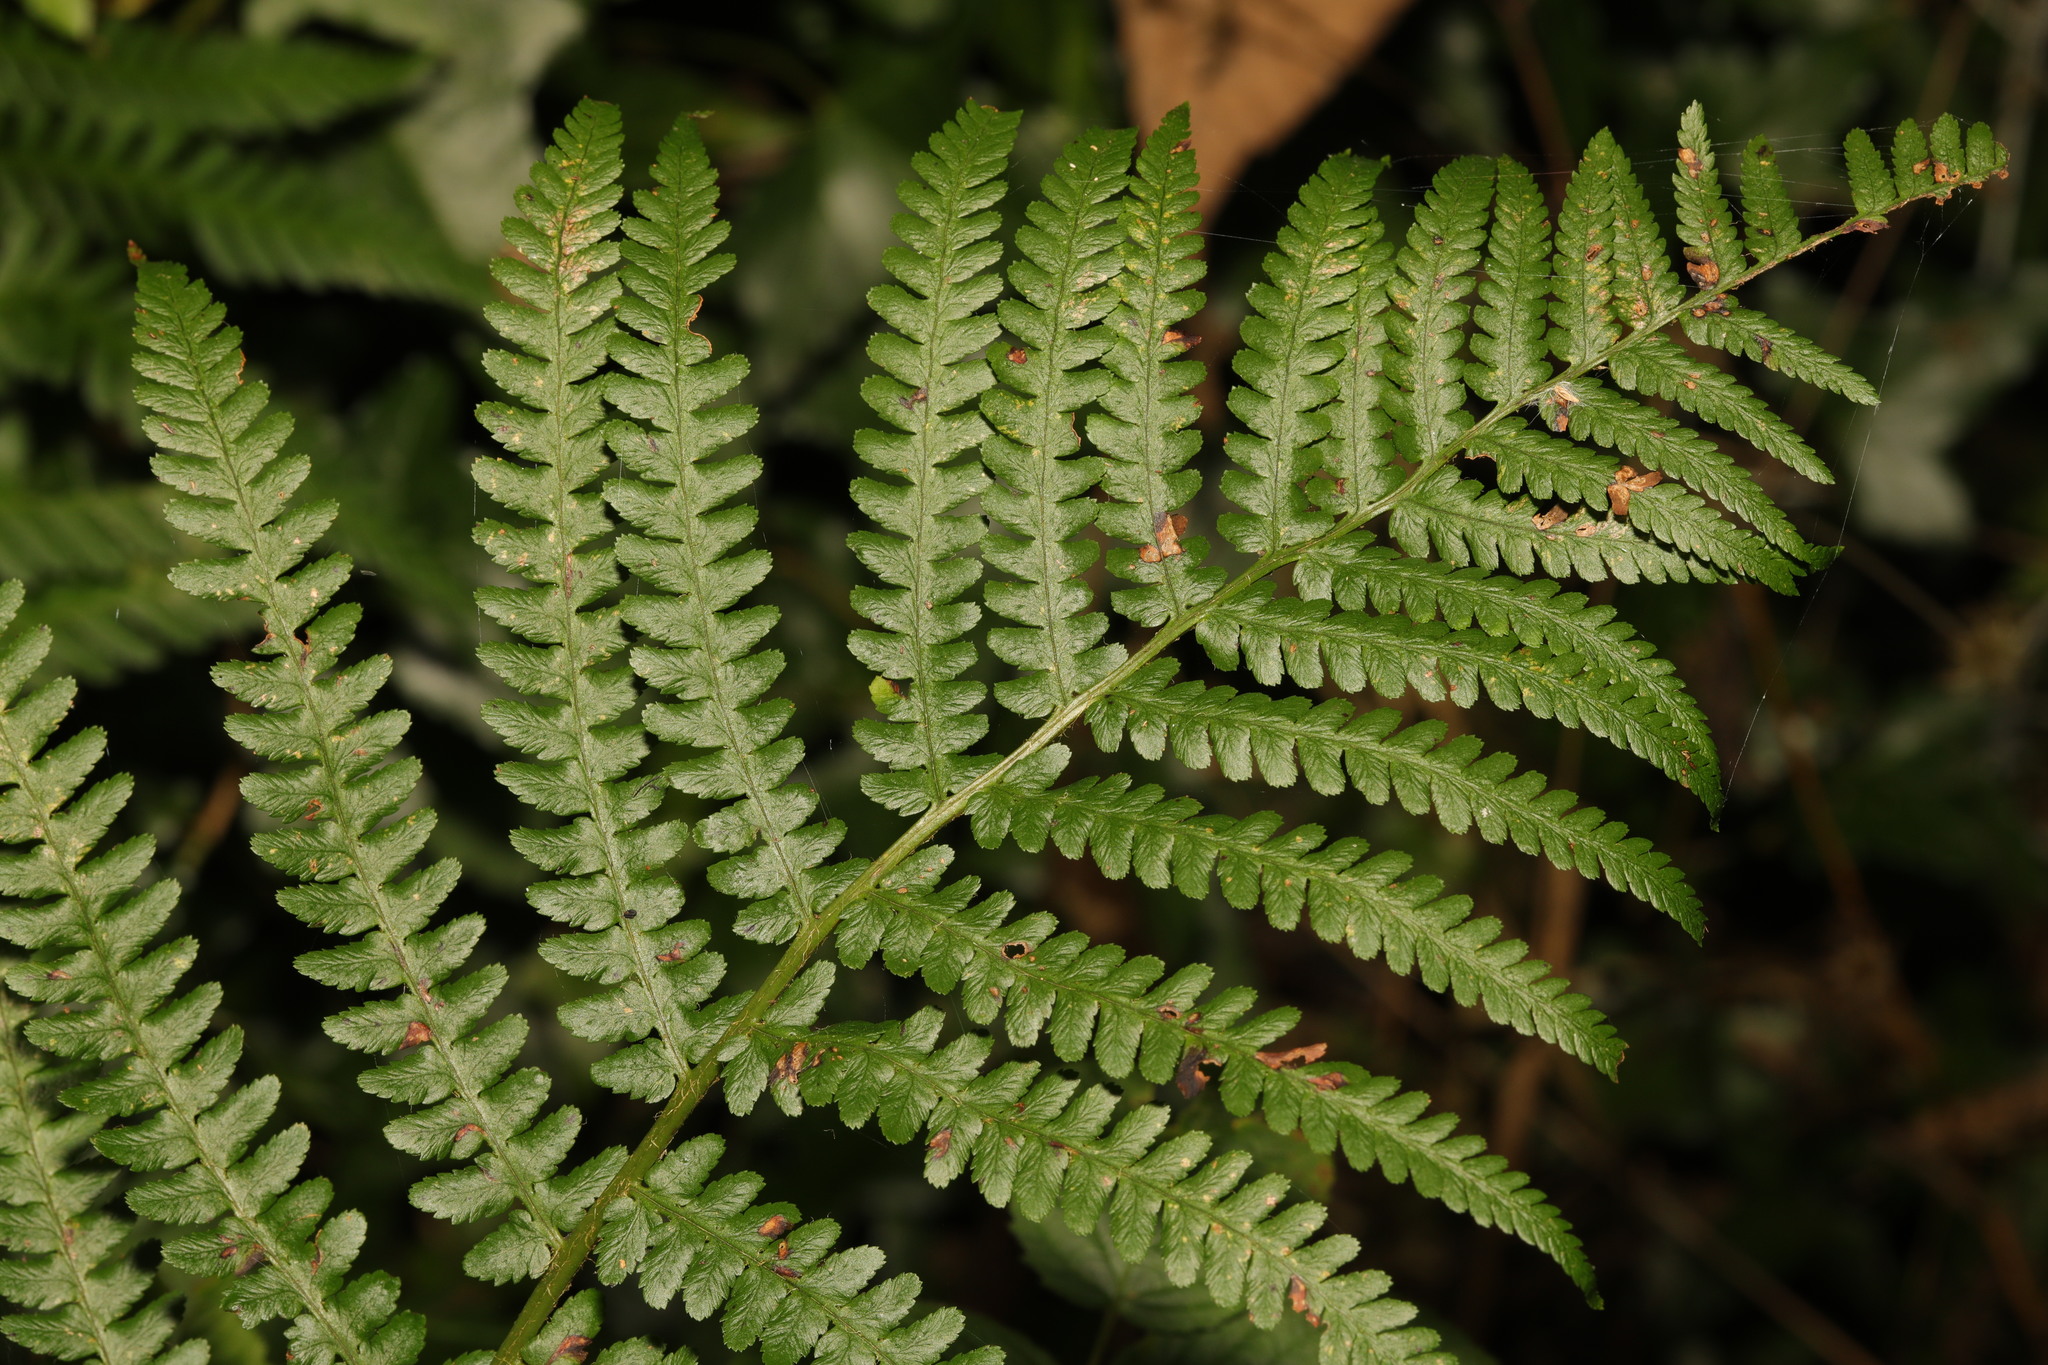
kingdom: Plantae
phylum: Tracheophyta
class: Polypodiopsida
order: Polypodiales
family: Dryopteridaceae
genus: Dryopteris
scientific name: Dryopteris filix-mas
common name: Male fern
